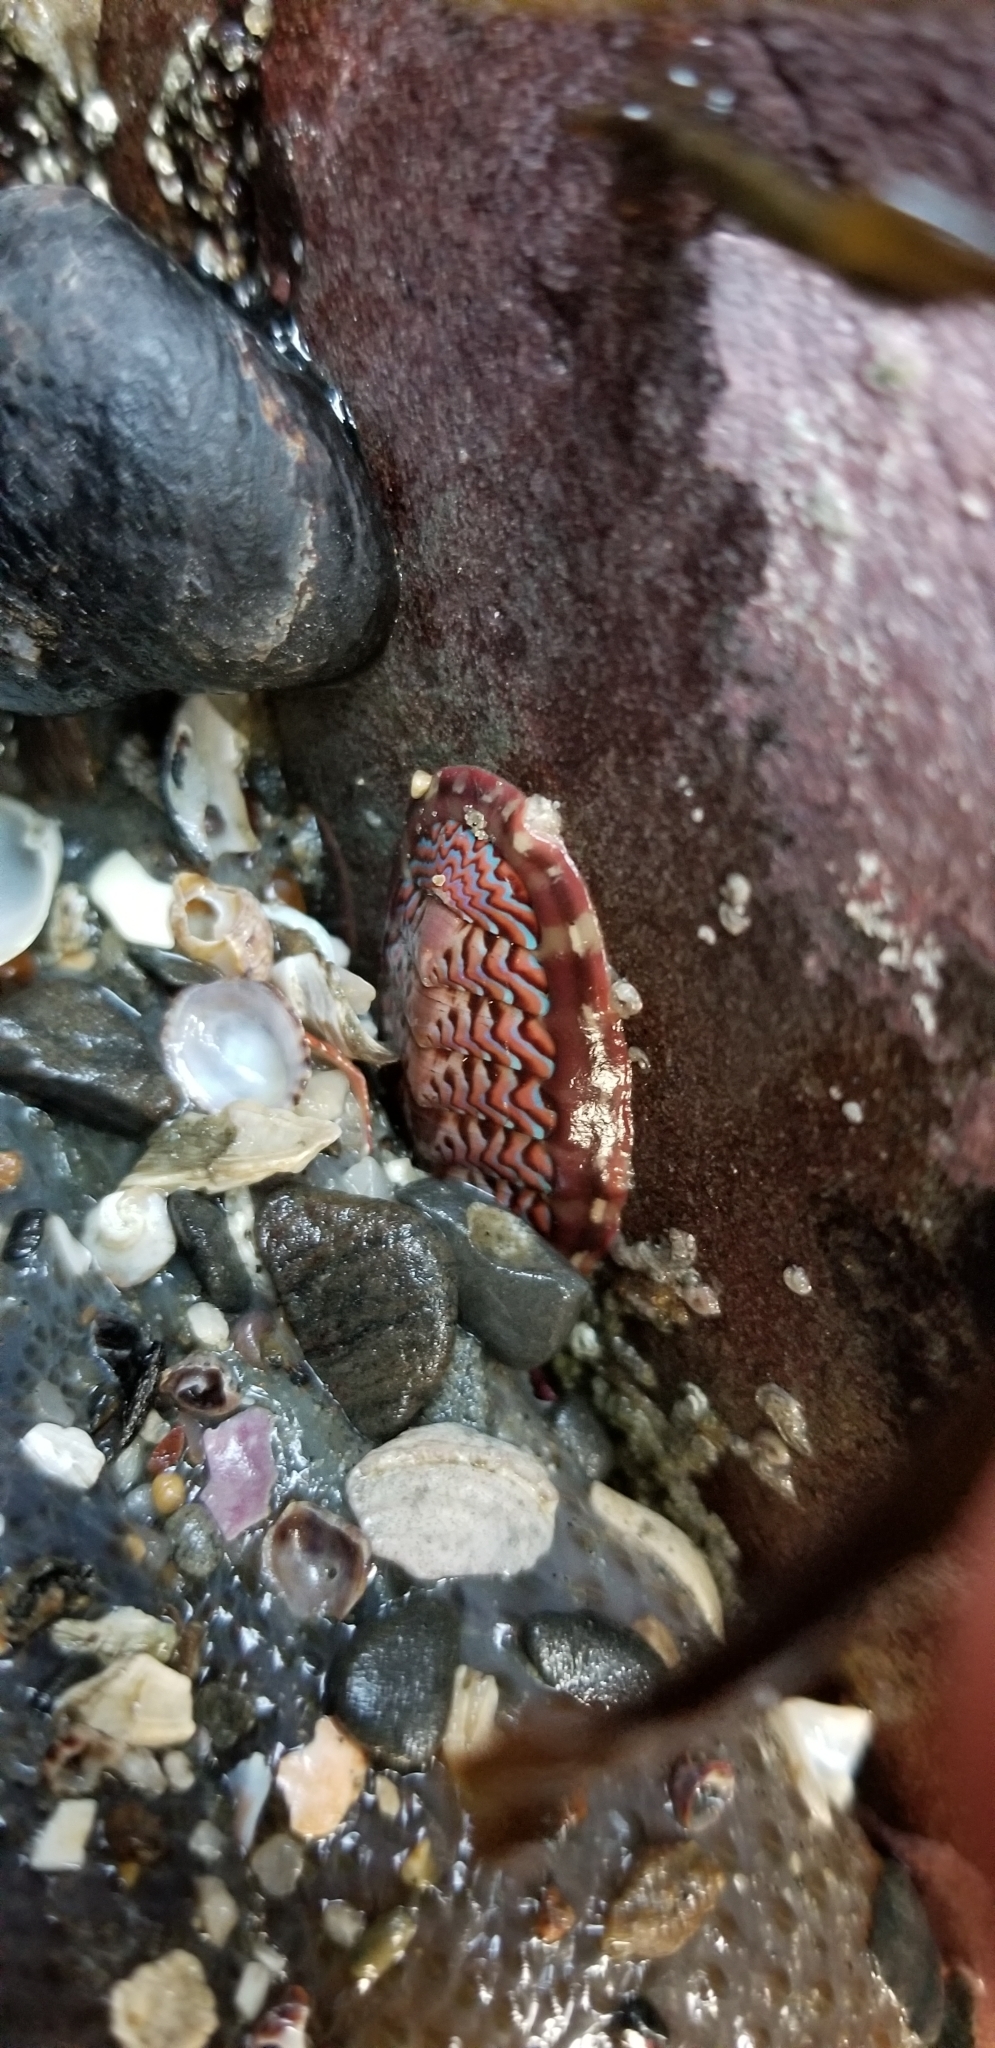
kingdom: Animalia
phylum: Mollusca
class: Polyplacophora
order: Chitonida
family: Tonicellidae
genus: Tonicella
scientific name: Tonicella lokii
